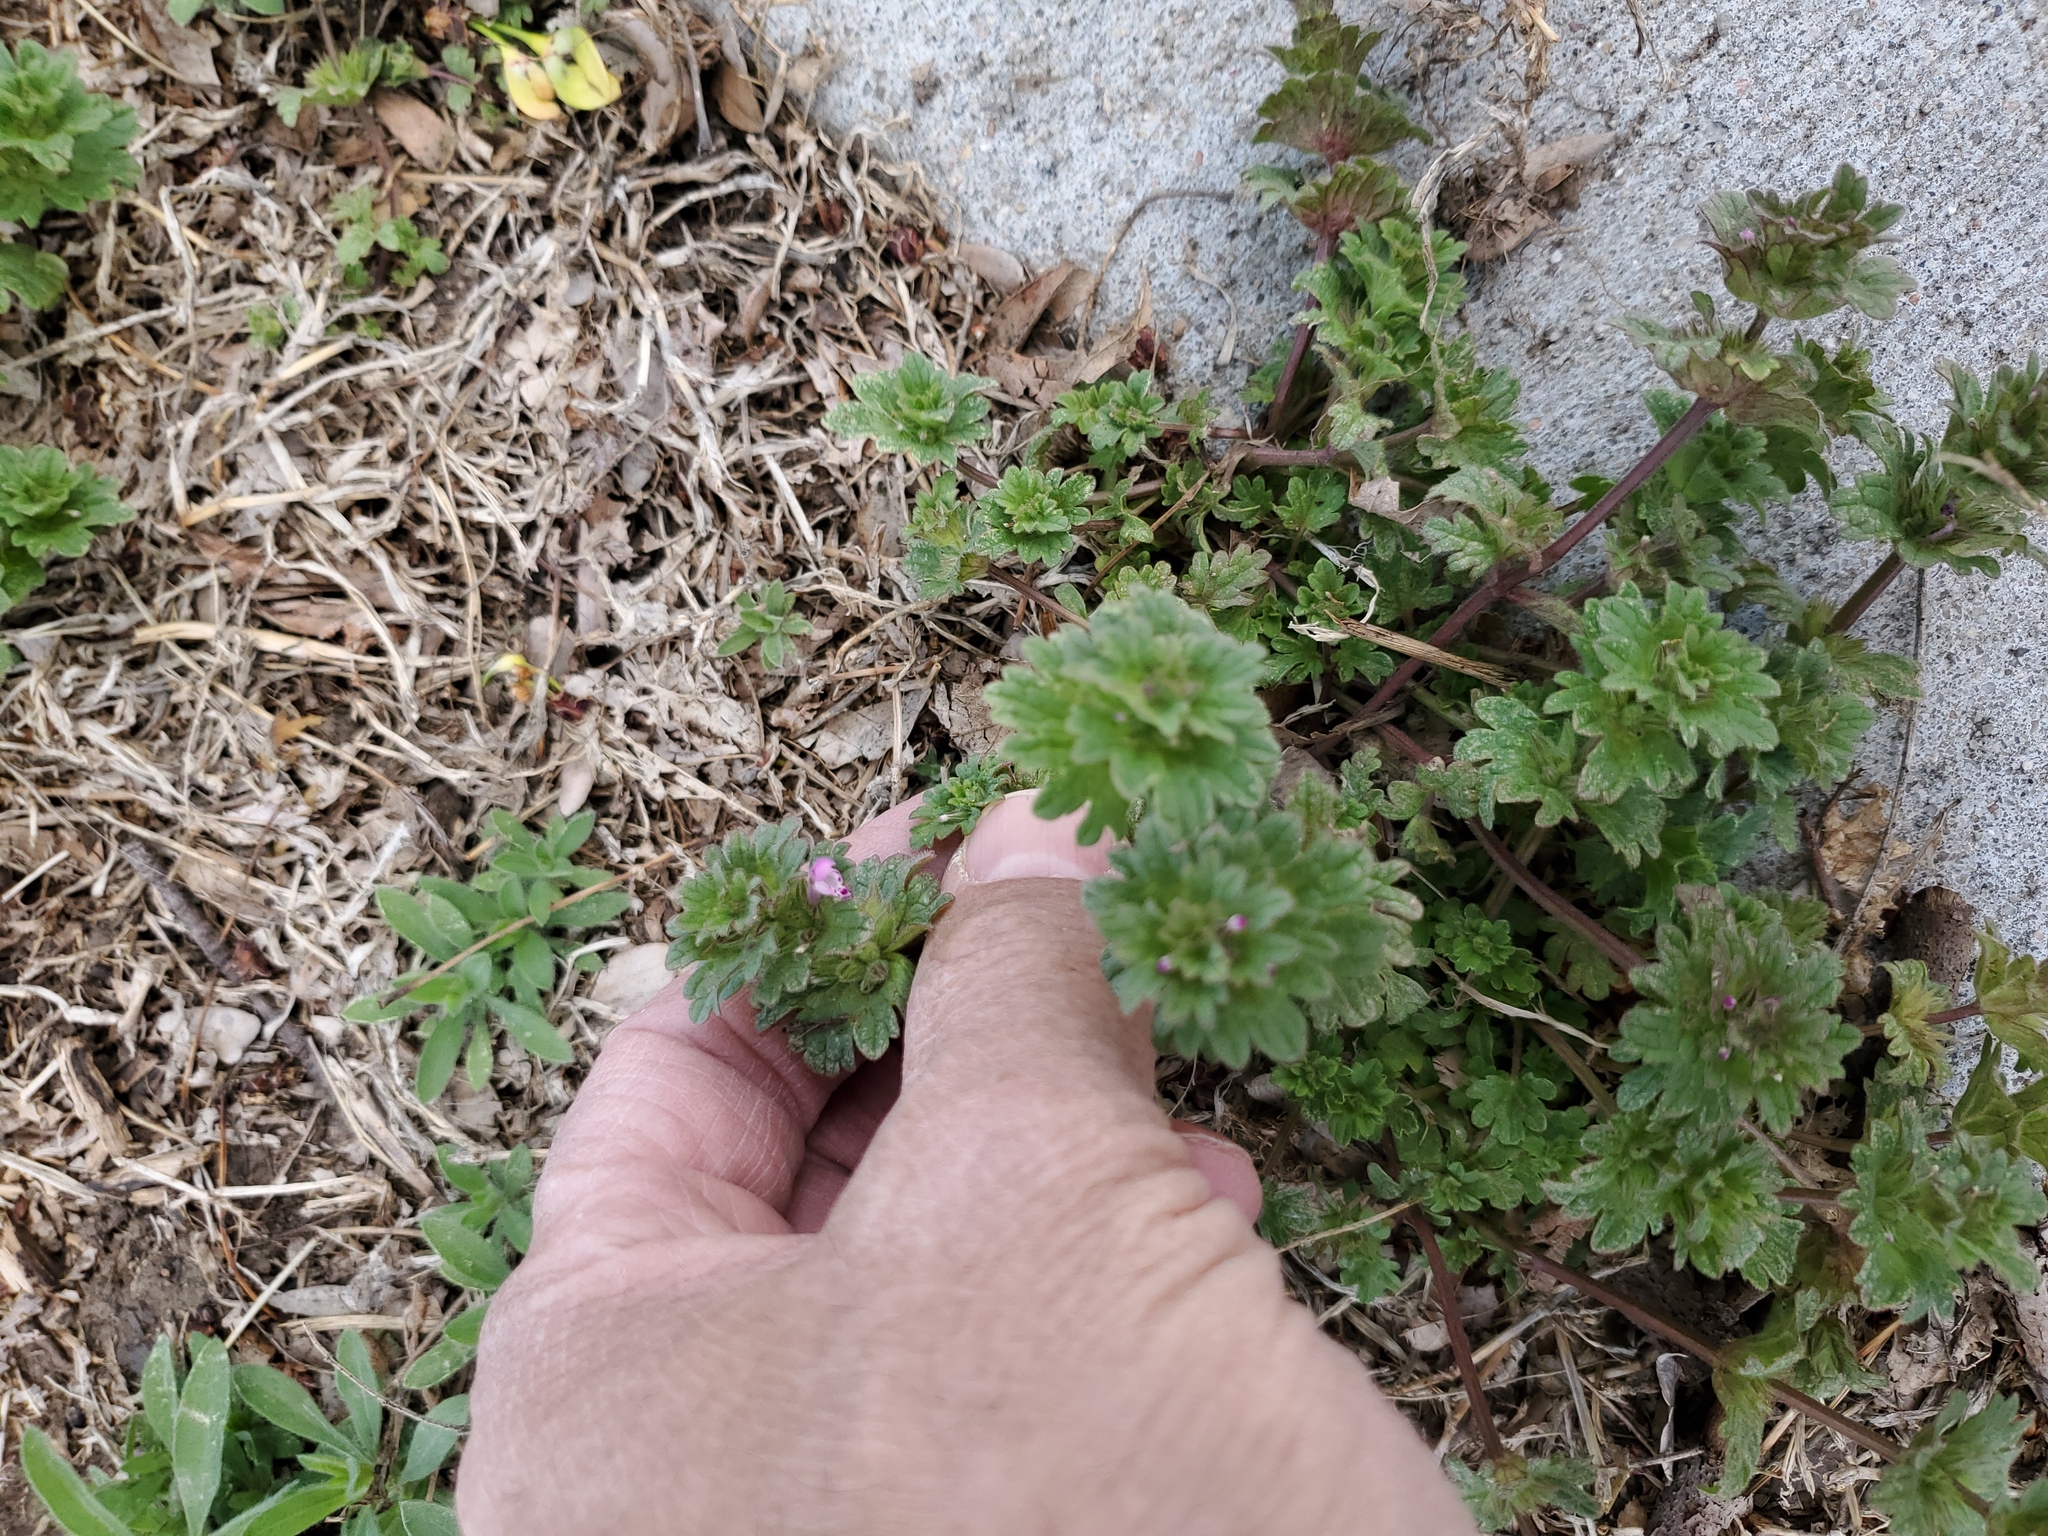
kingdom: Plantae
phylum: Tracheophyta
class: Magnoliopsida
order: Lamiales
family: Lamiaceae
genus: Lamium
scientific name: Lamium amplexicaule
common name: Henbit dead-nettle
